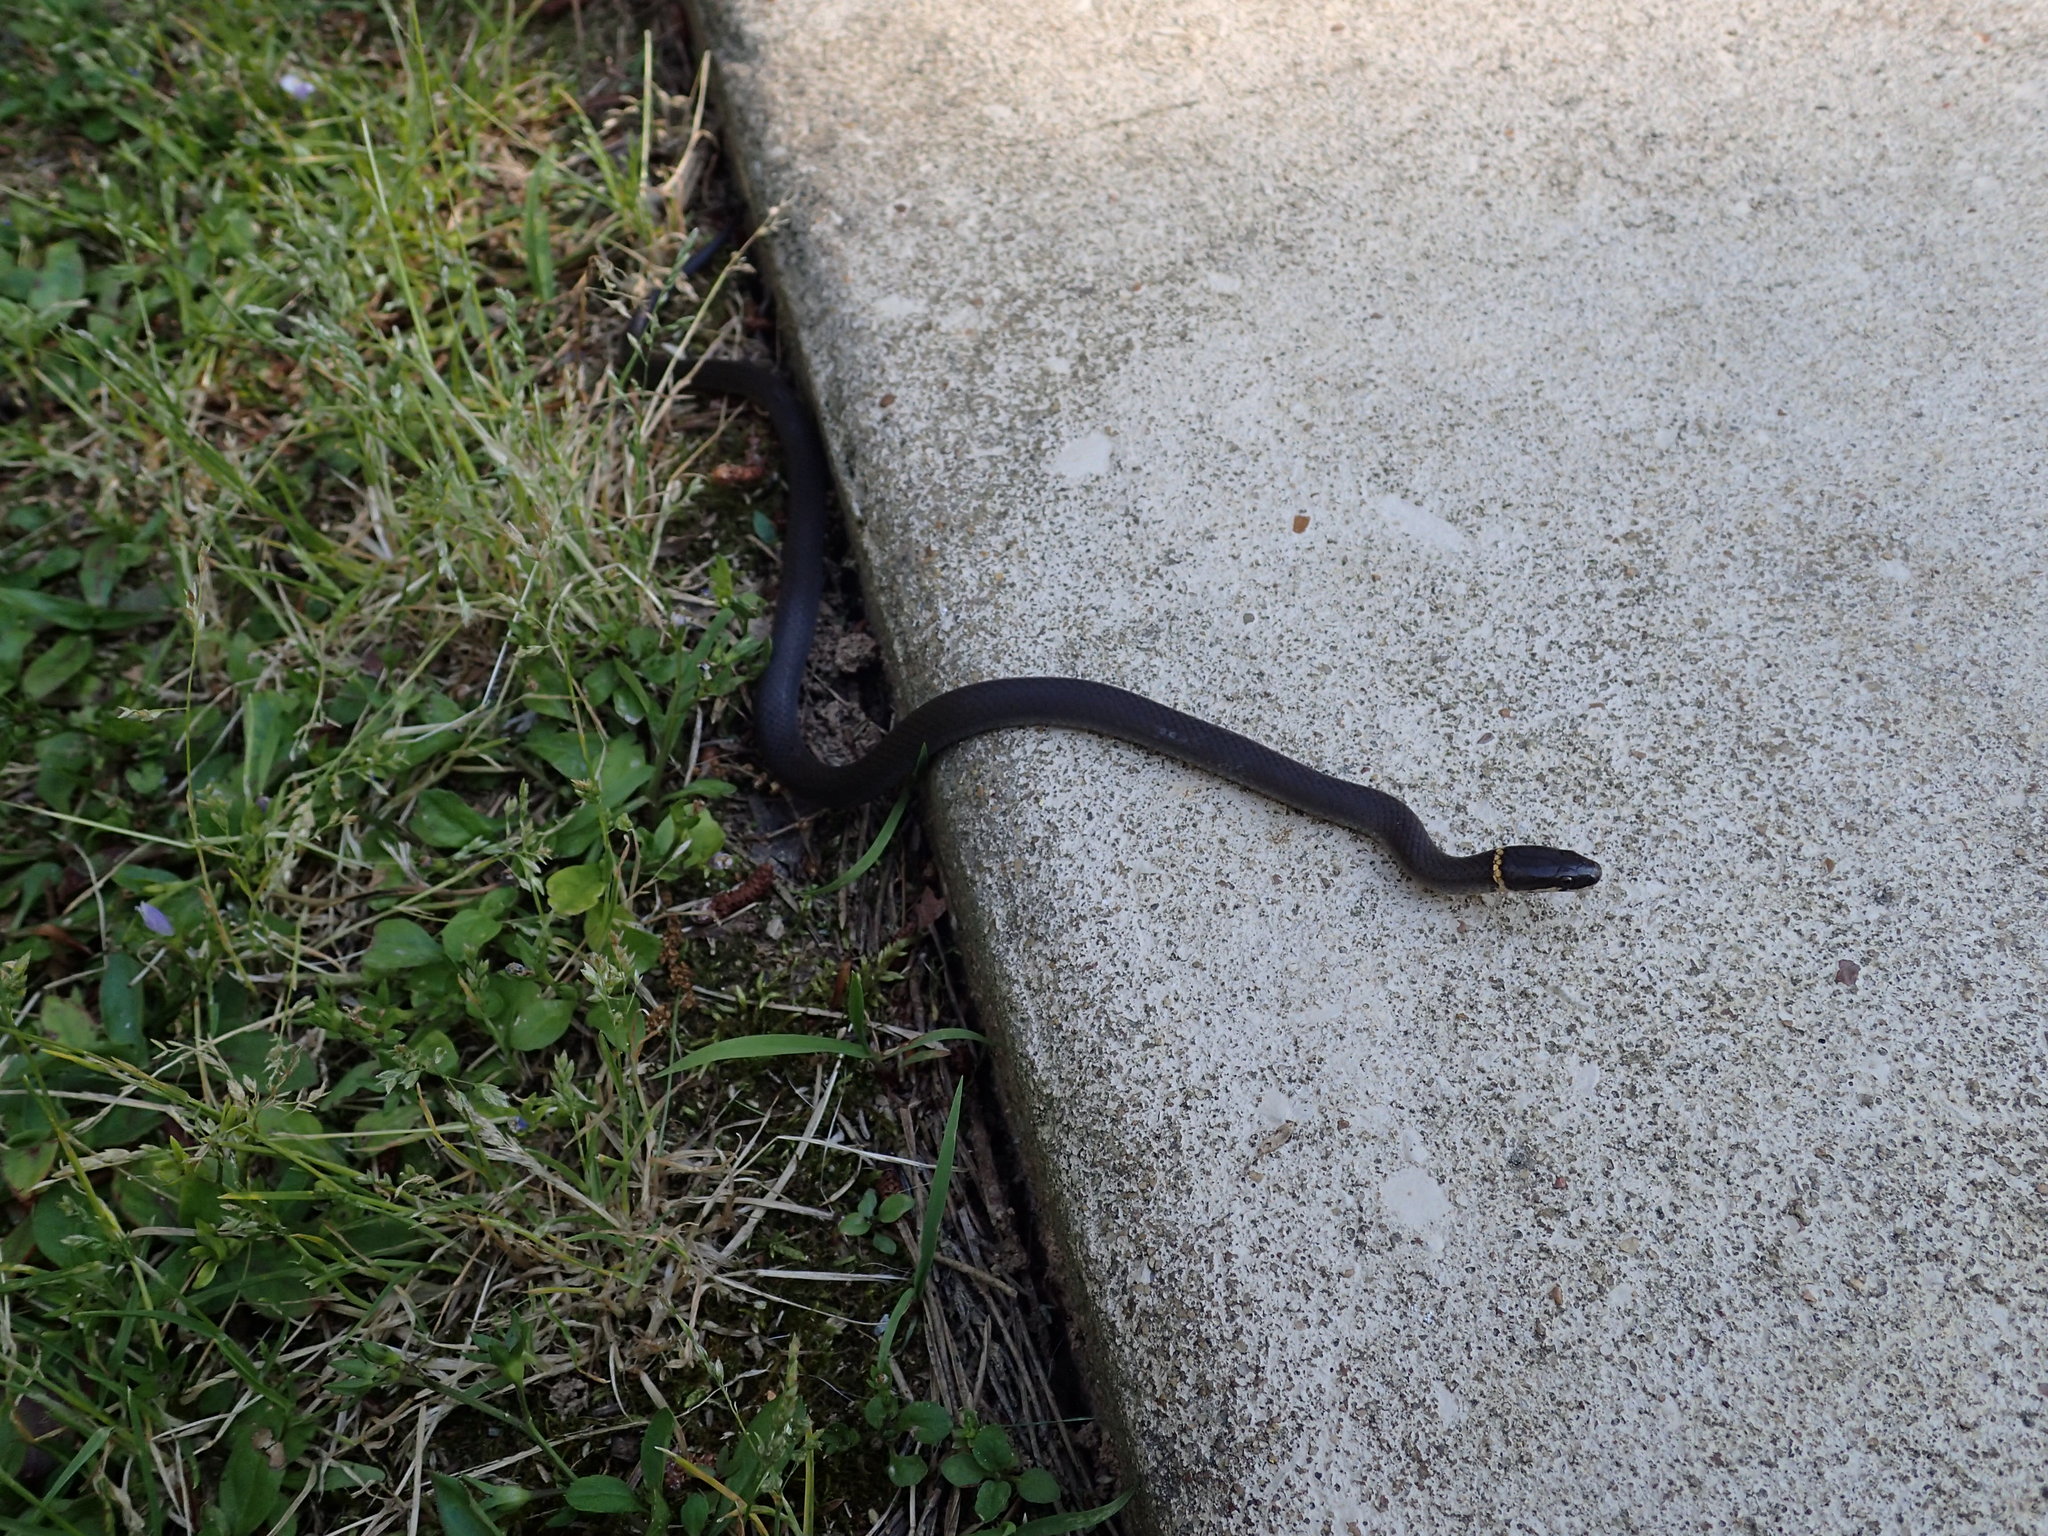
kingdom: Animalia
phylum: Chordata
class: Squamata
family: Colubridae
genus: Diadophis
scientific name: Diadophis punctatus
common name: Ringneck snake
